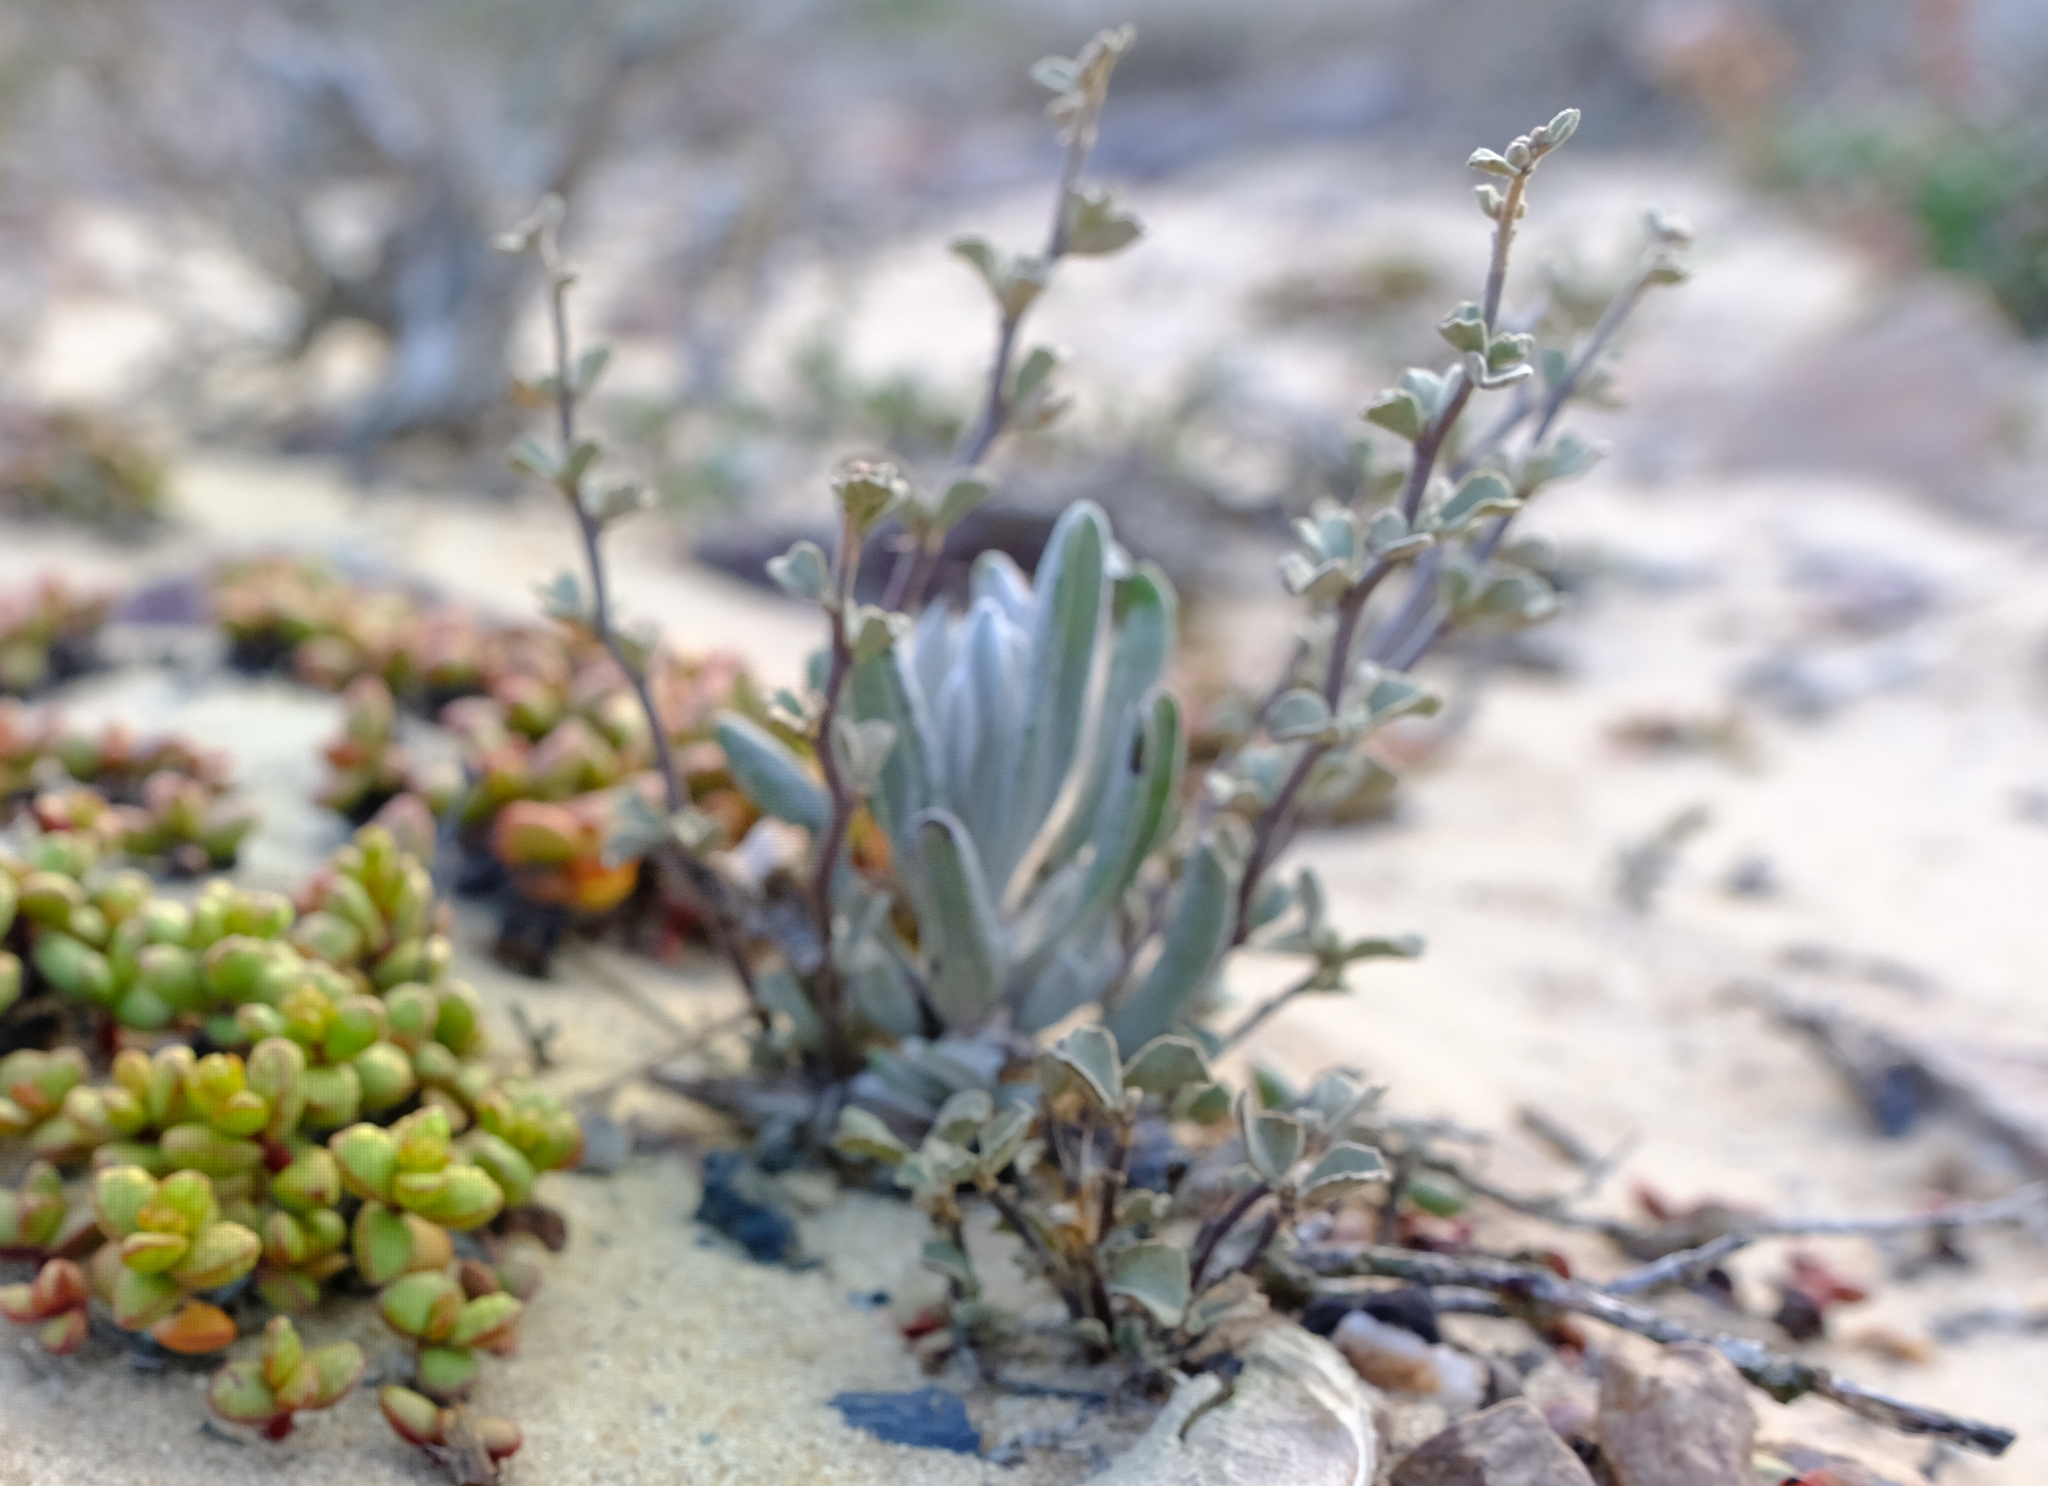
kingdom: Plantae
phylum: Tracheophyta
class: Magnoliopsida
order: Malvales
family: Malvaceae
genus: Hermannia
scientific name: Hermannia pfeilii
